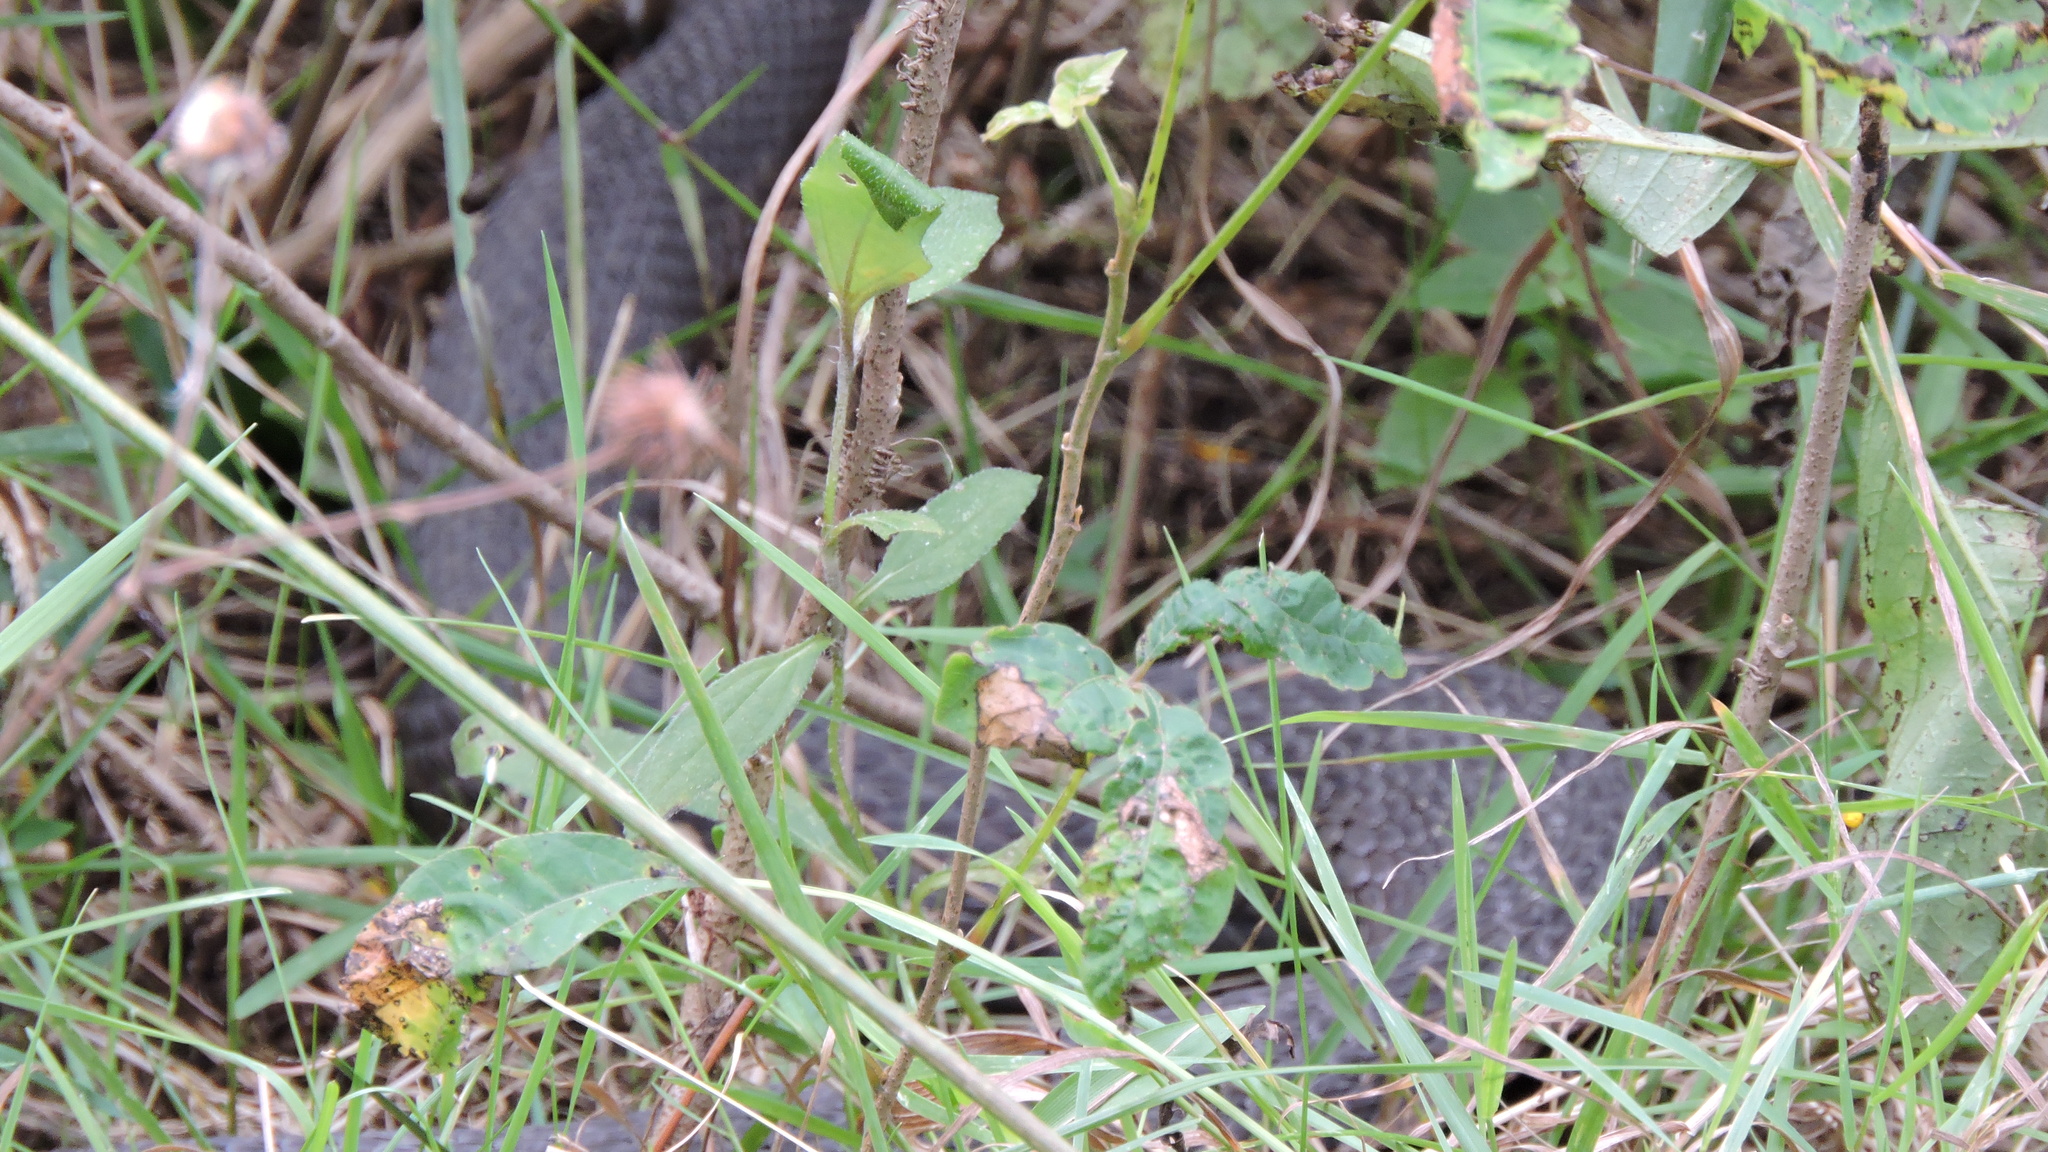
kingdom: Animalia
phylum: Chordata
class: Squamata
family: Colubridae
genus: Nerodia
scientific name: Nerodia sipedon
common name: Northern water snake
